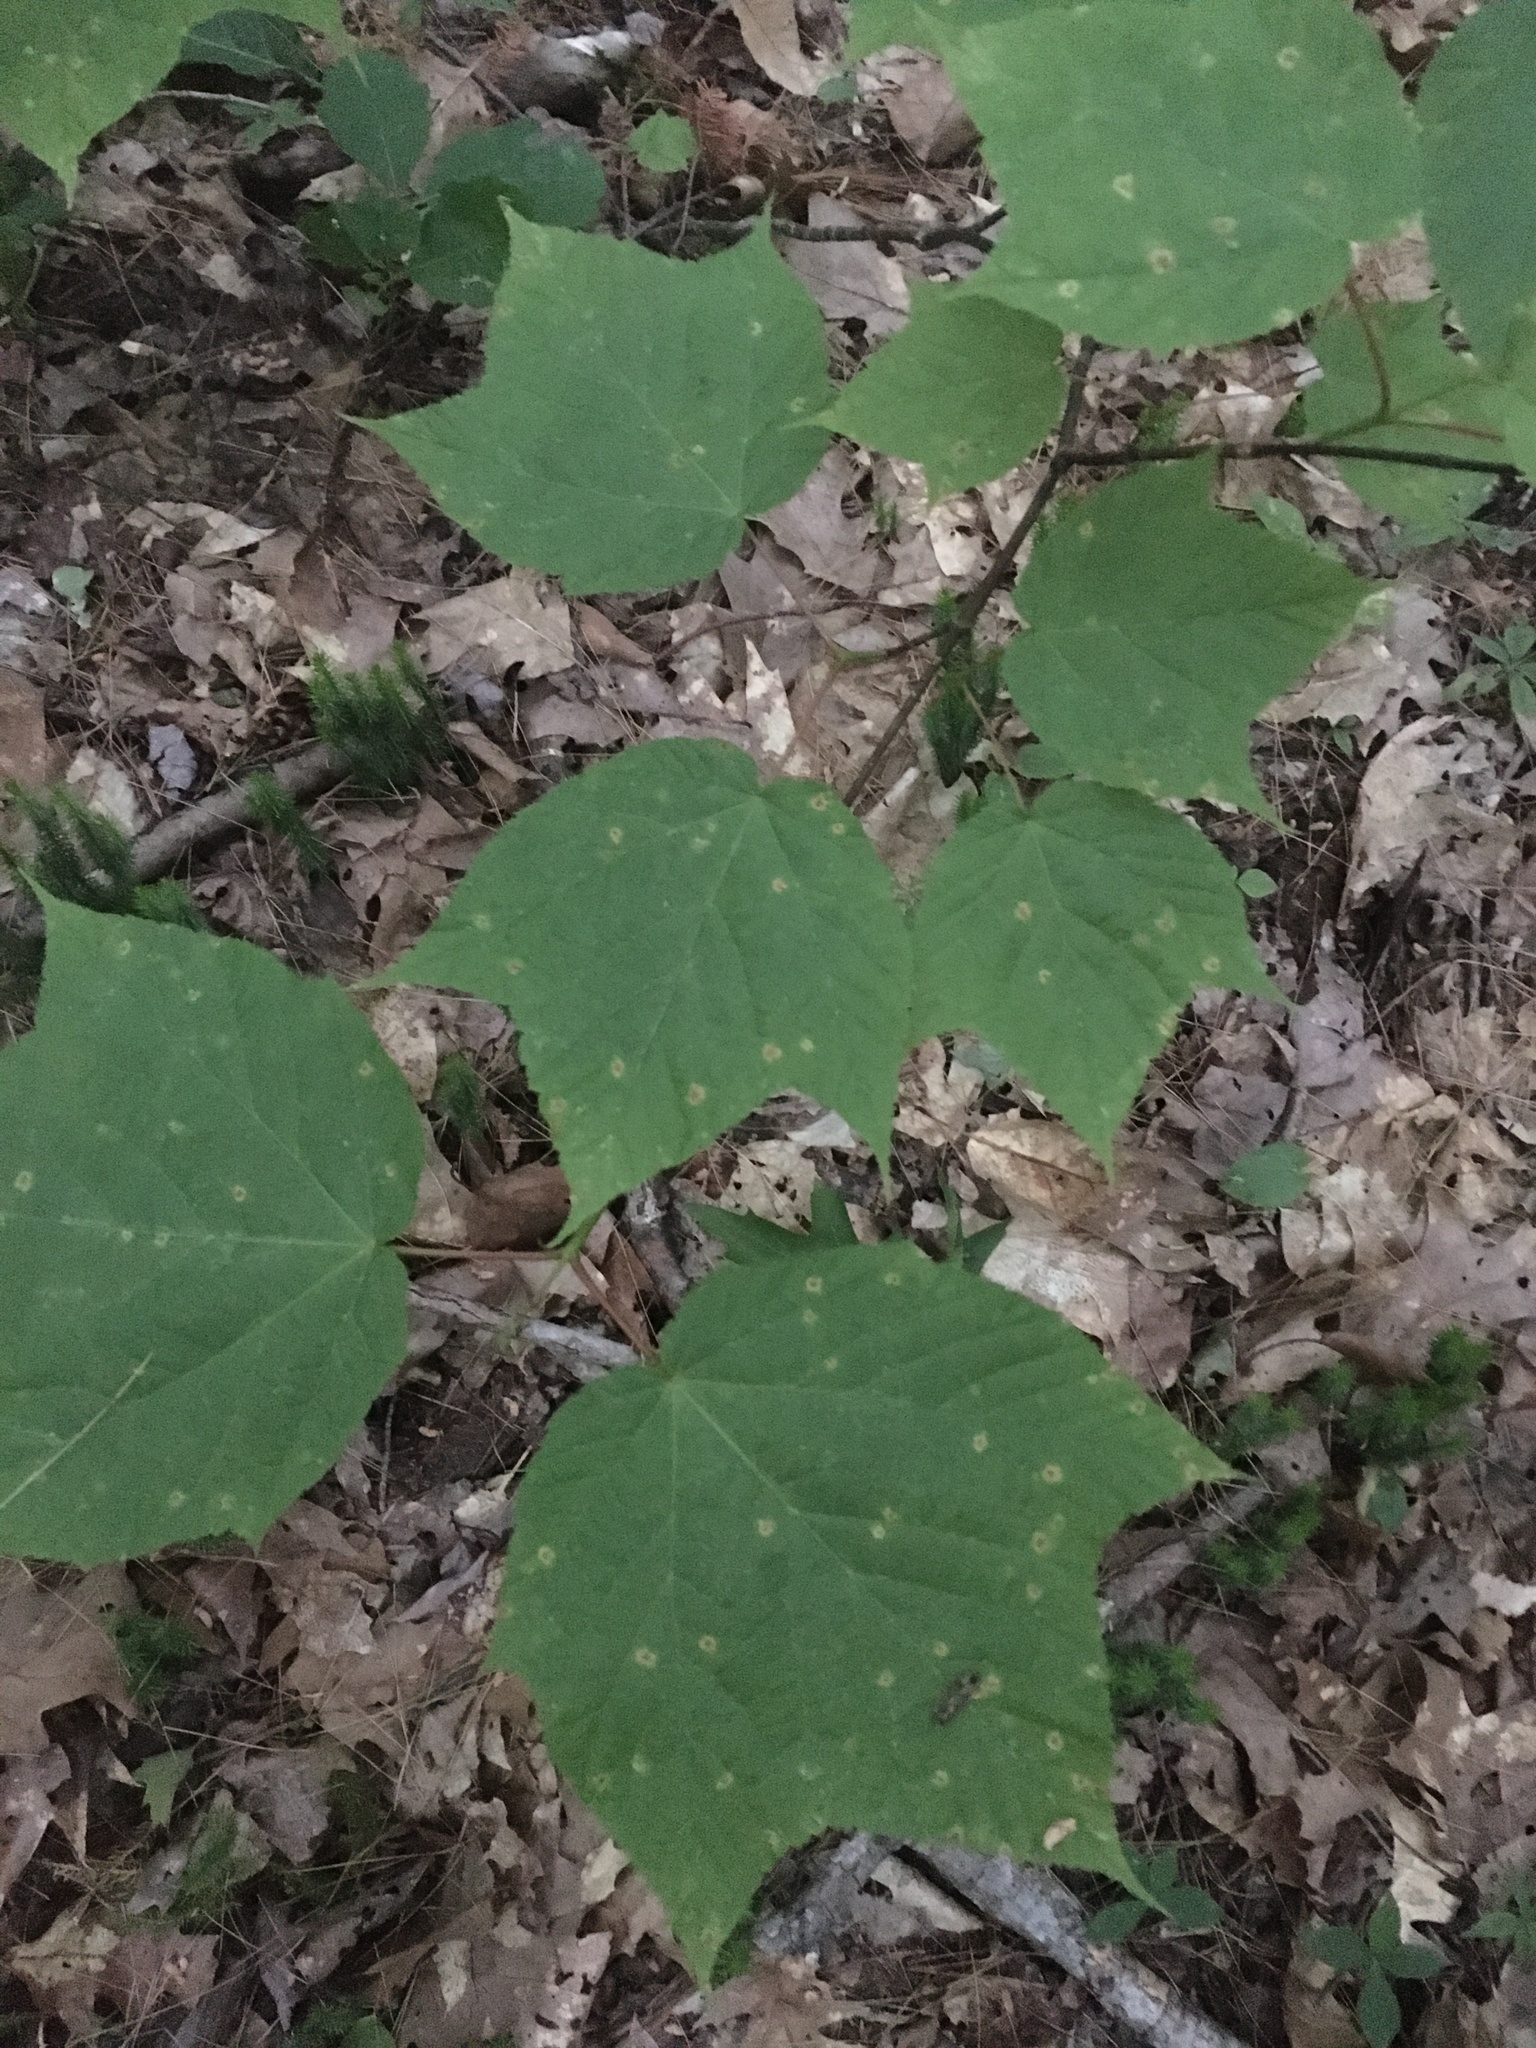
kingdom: Plantae
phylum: Tracheophyta
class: Magnoliopsida
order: Sapindales
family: Sapindaceae
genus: Acer
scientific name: Acer pensylvanicum
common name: Moosewood
